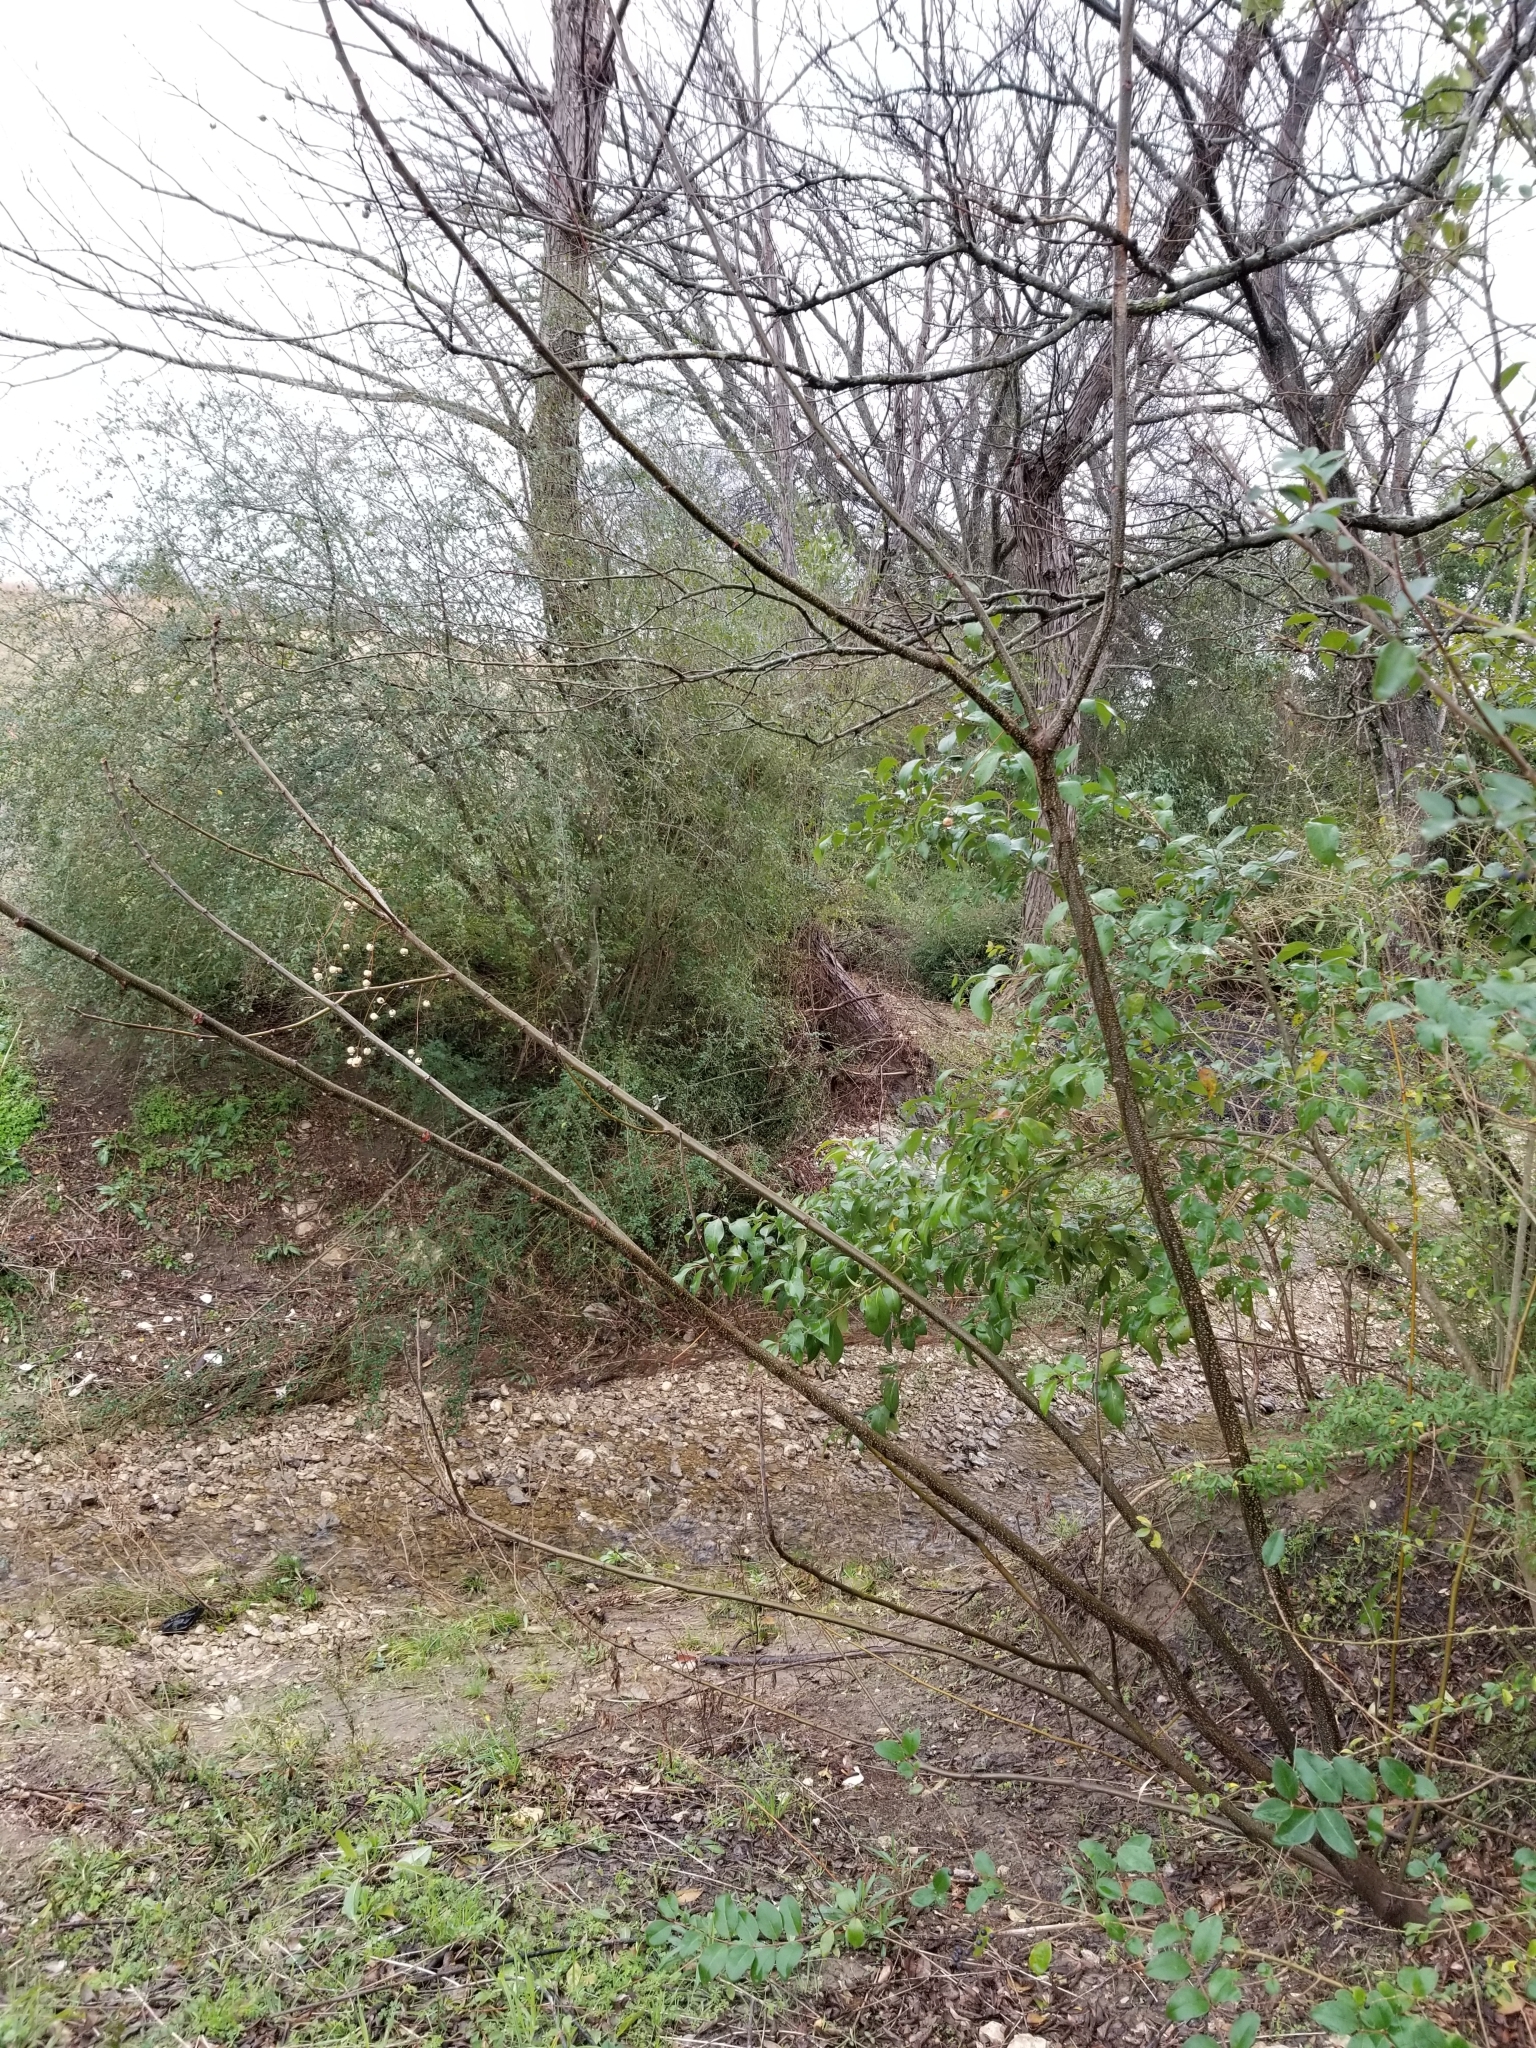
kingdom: Plantae
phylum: Tracheophyta
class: Magnoliopsida
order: Sapindales
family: Meliaceae
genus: Melia
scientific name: Melia azedarach
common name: Chinaberrytree
